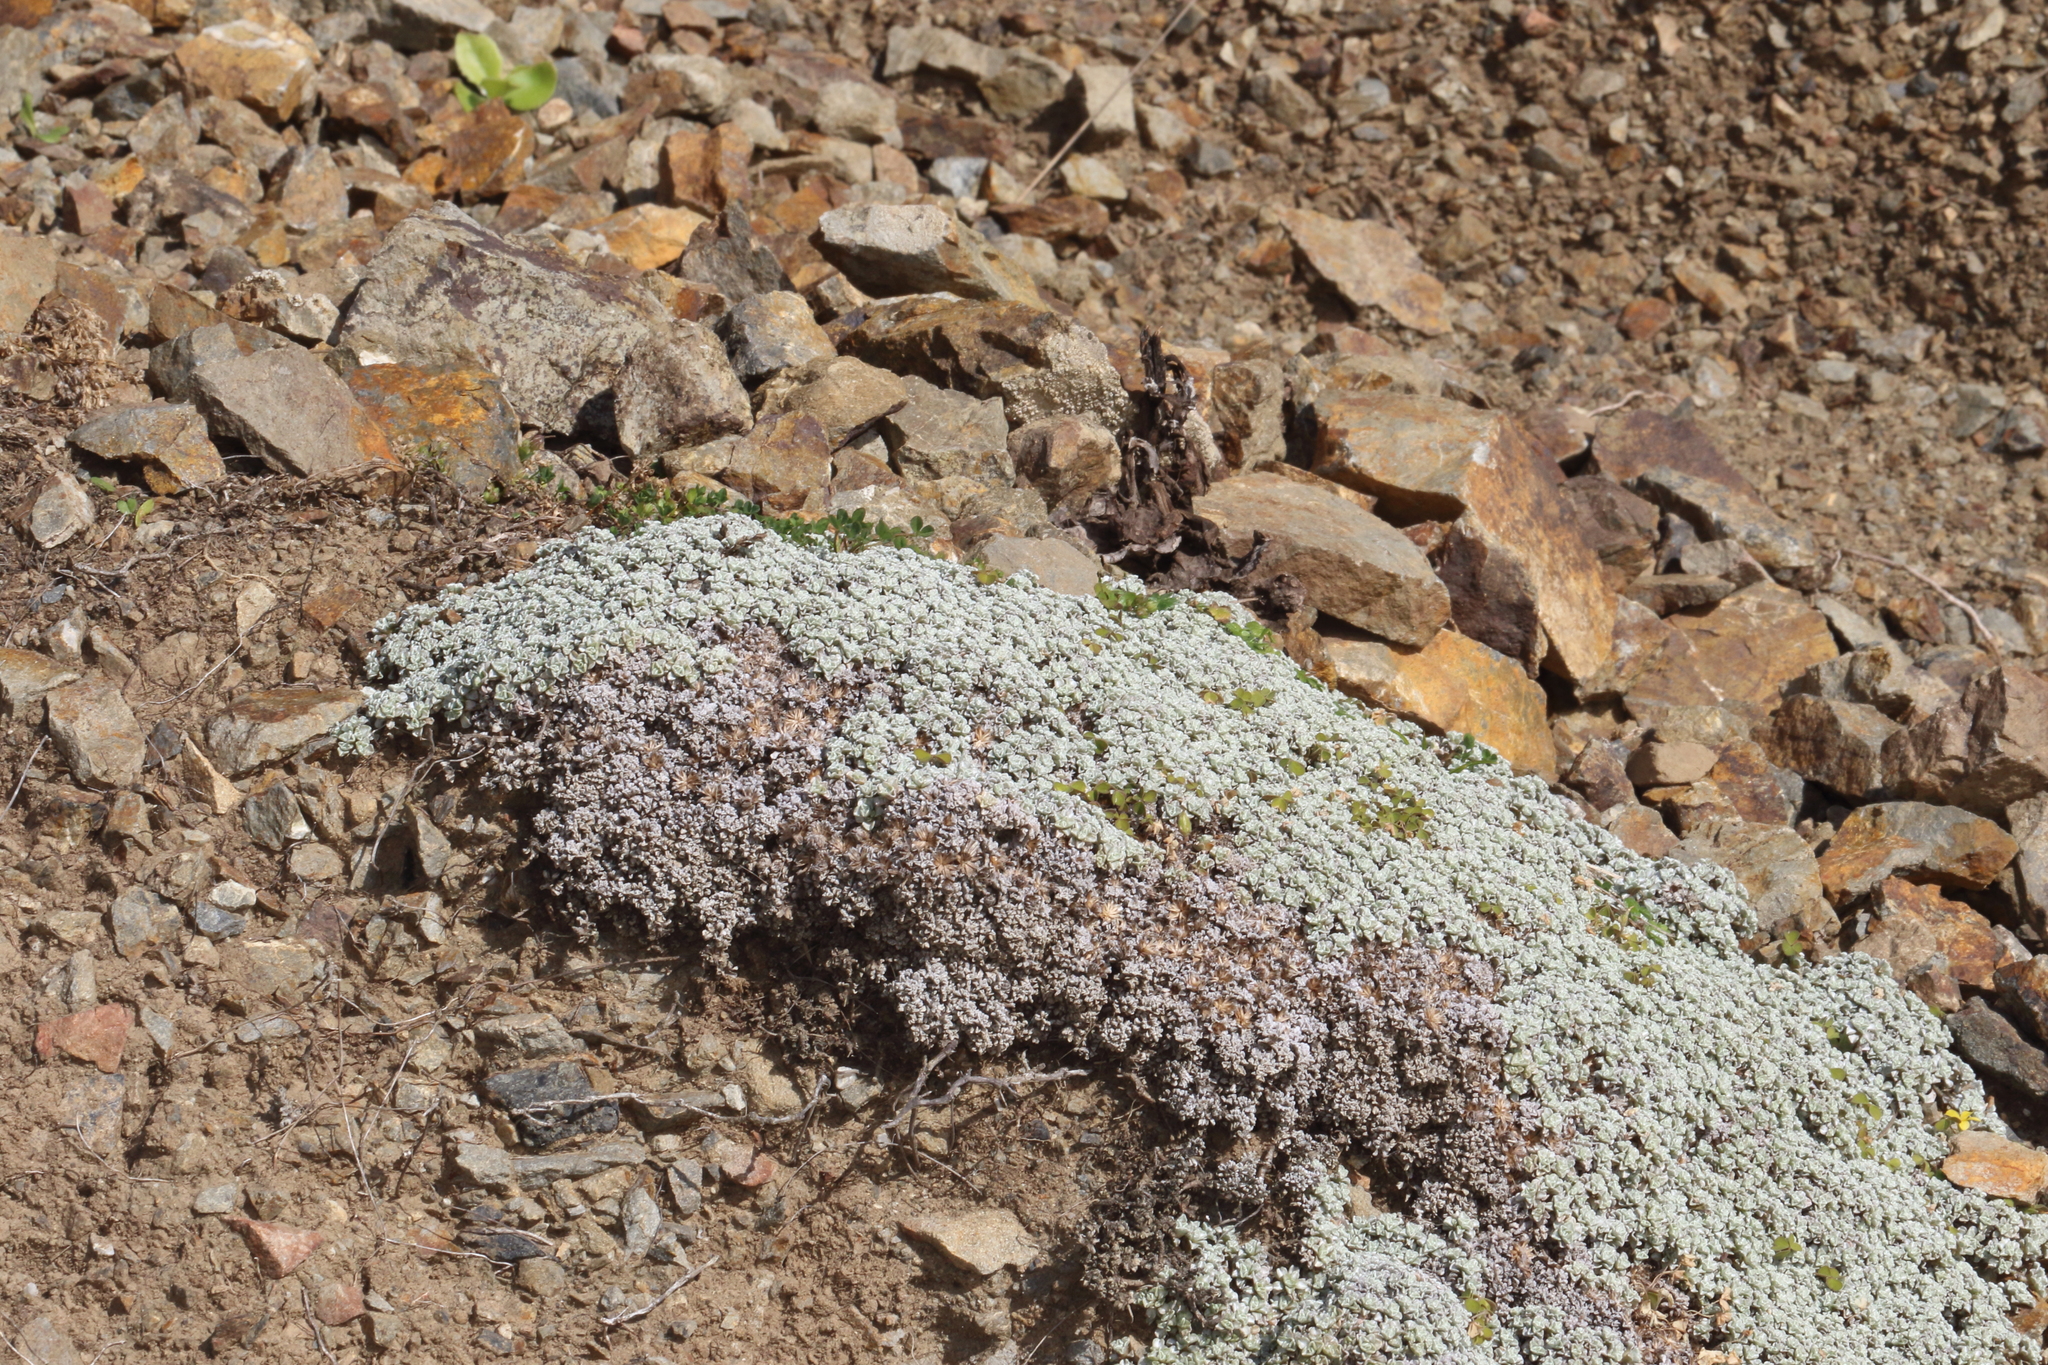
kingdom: Plantae
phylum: Tracheophyta
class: Magnoliopsida
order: Asterales
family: Asteraceae
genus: Raoulia
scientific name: Raoulia hookeri
